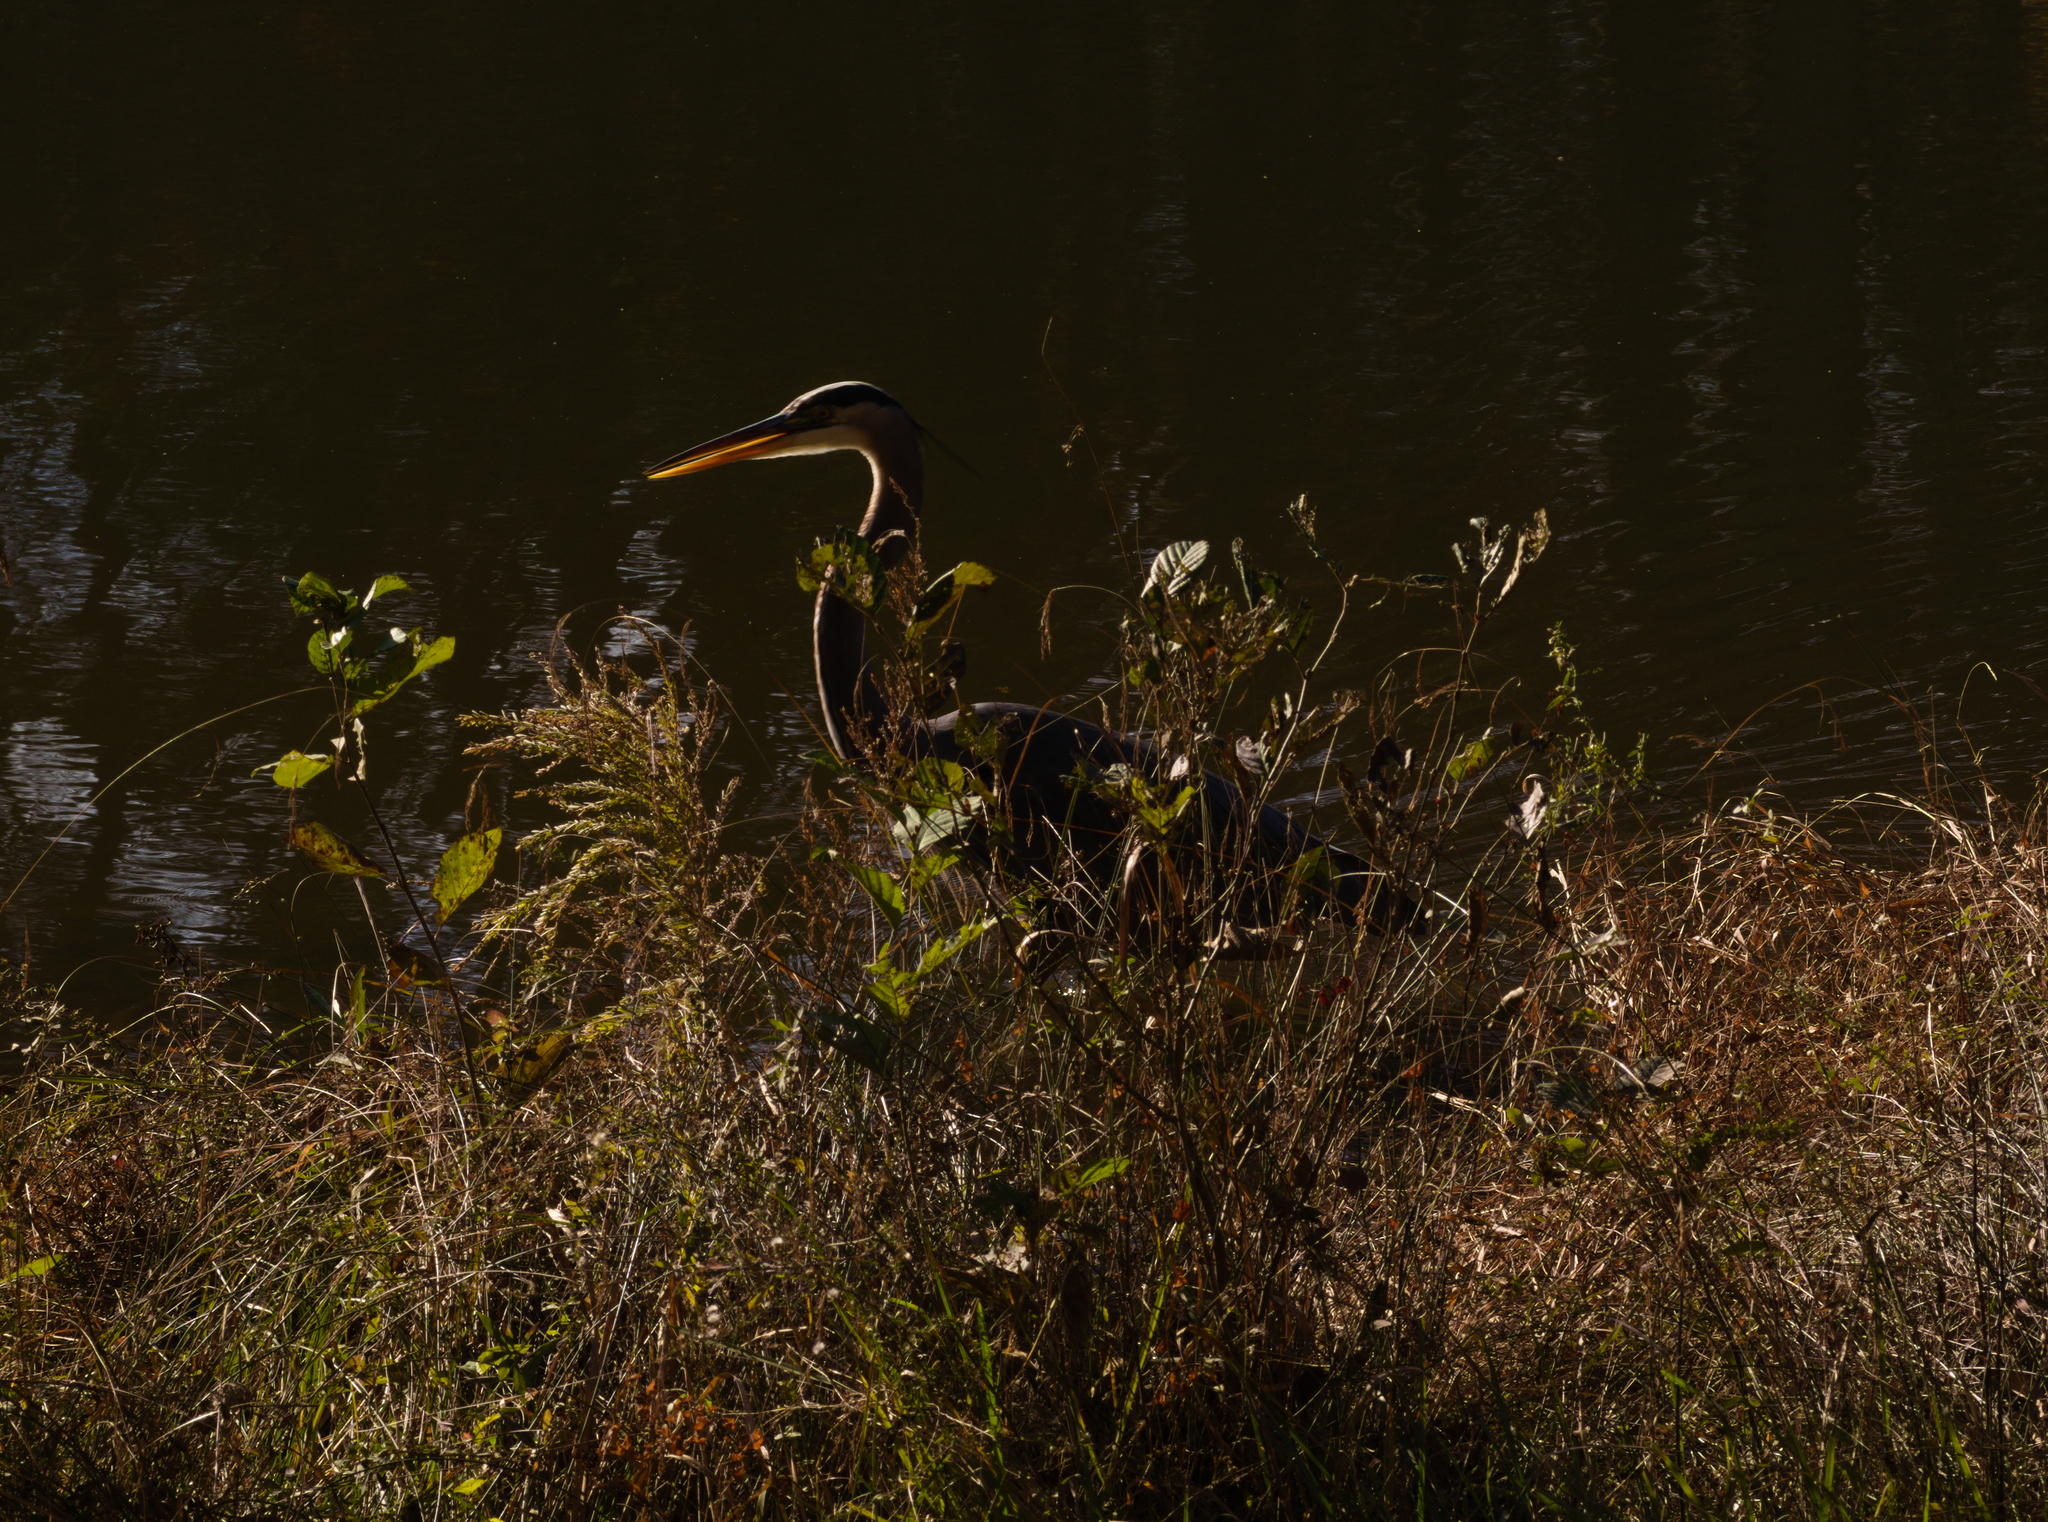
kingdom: Animalia
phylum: Chordata
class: Aves
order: Pelecaniformes
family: Ardeidae
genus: Ardea
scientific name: Ardea herodias
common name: Great blue heron
